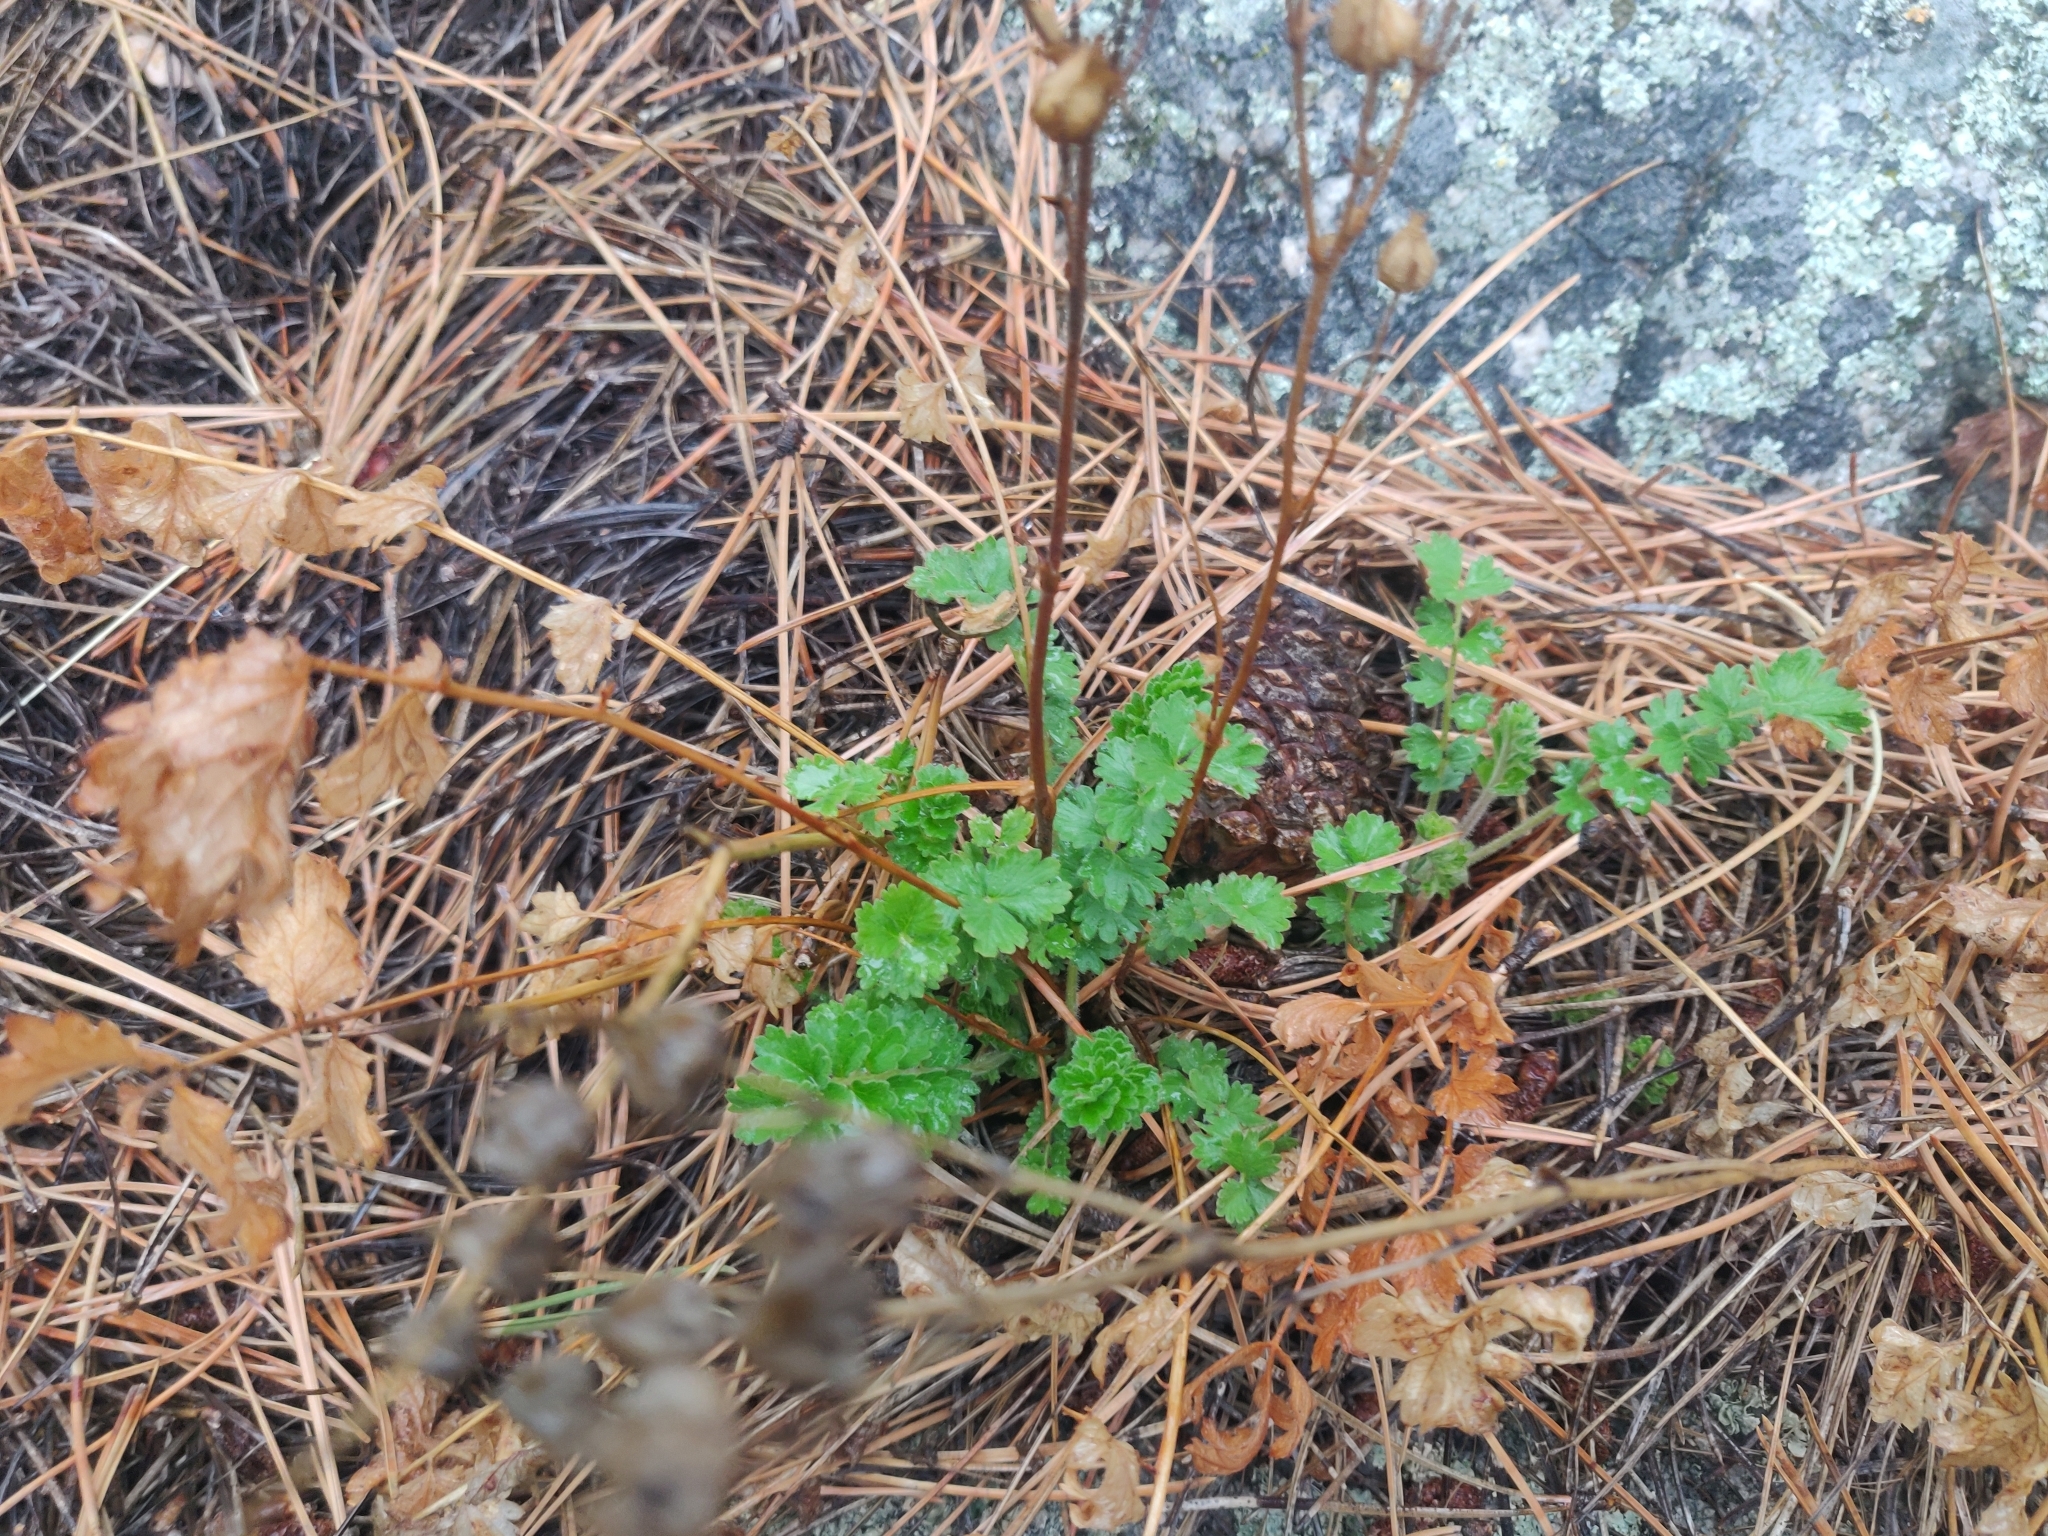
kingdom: Plantae
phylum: Tracheophyta
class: Magnoliopsida
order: Rosales
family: Rosaceae
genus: Drymocallis
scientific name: Drymocallis fissa
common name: Big-flowered cinquefoil
